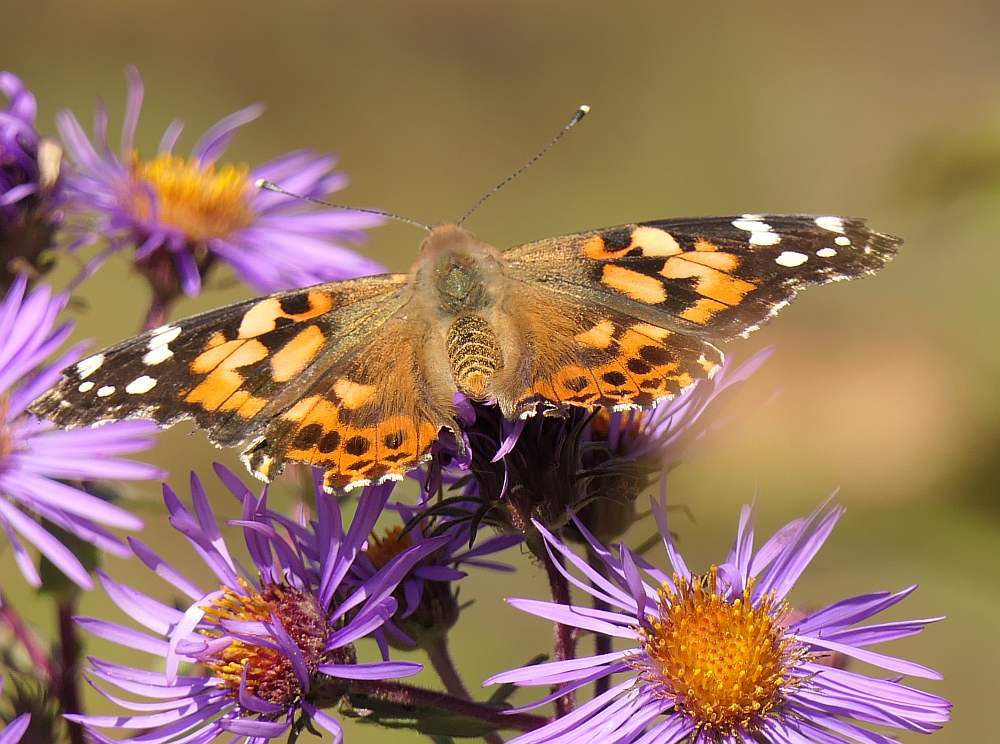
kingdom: Animalia
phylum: Arthropoda
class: Insecta
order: Lepidoptera
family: Nymphalidae
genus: Vanessa
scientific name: Vanessa cardui
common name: Painted lady
